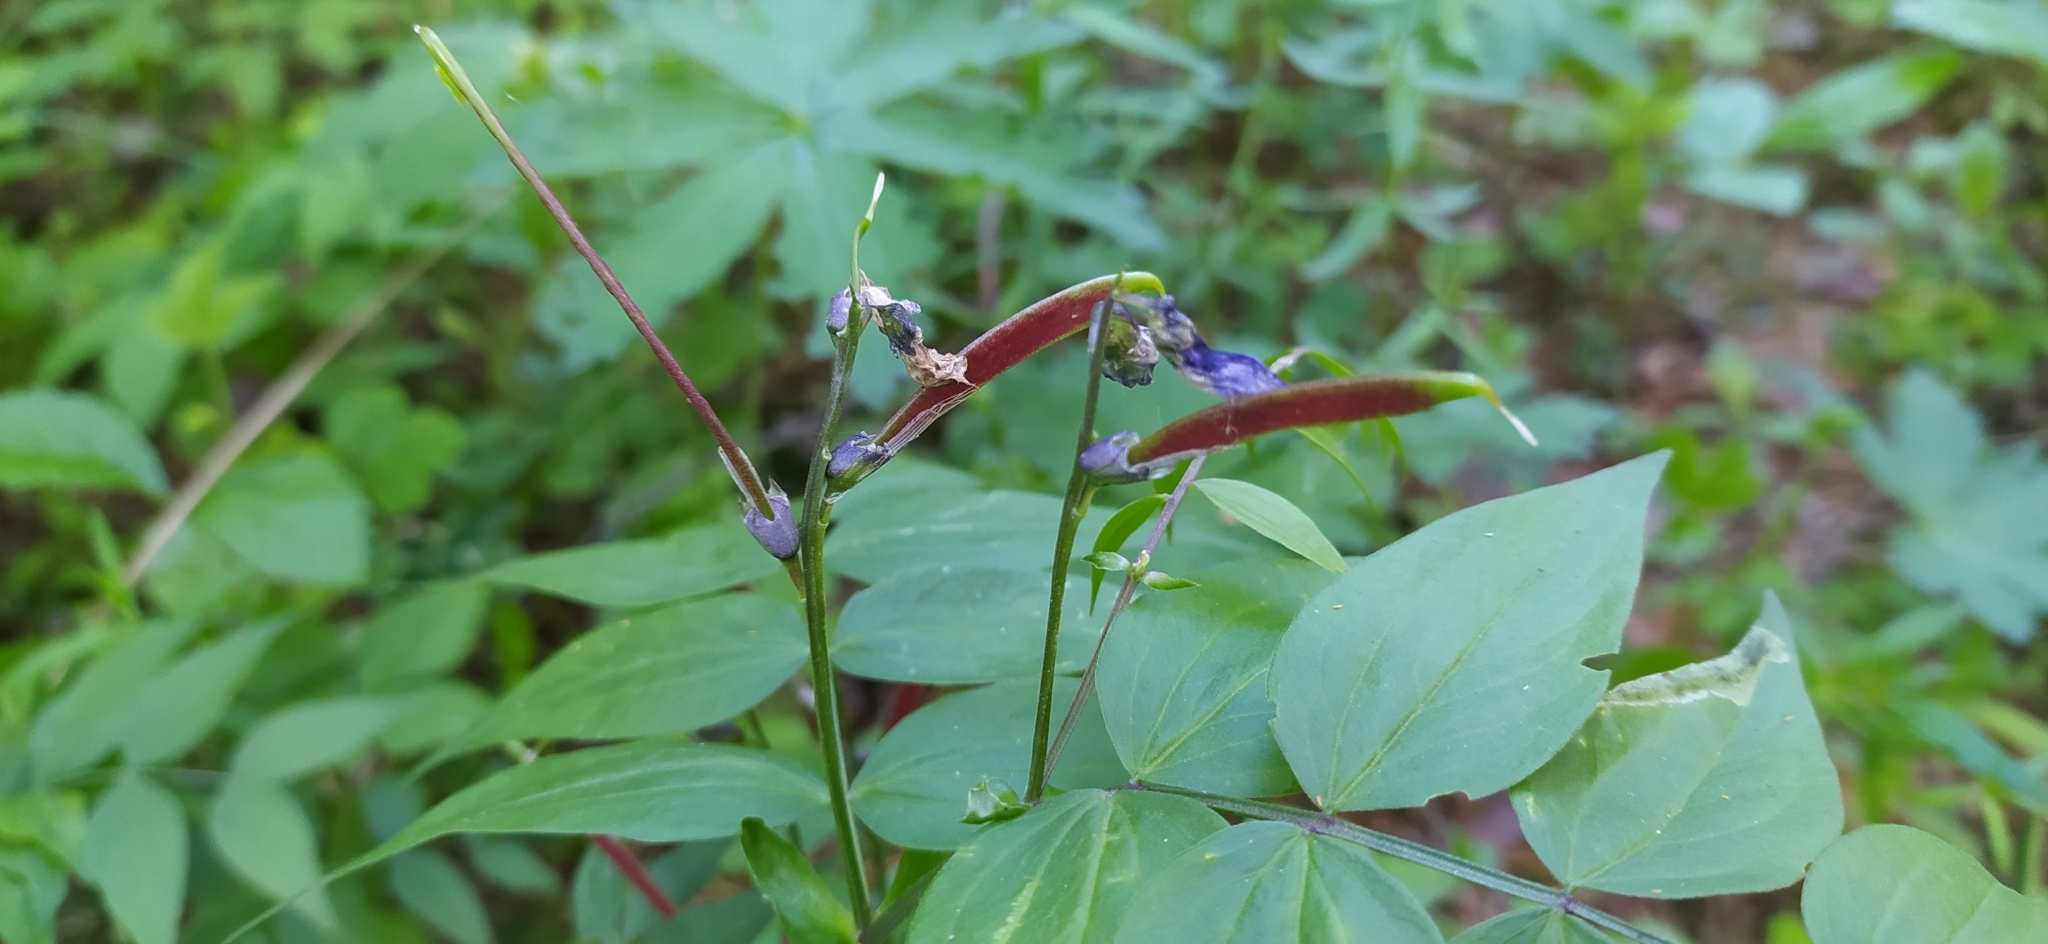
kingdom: Plantae
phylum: Tracheophyta
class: Magnoliopsida
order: Fabales
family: Fabaceae
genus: Lathyrus
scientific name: Lathyrus vernus
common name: Spring pea
